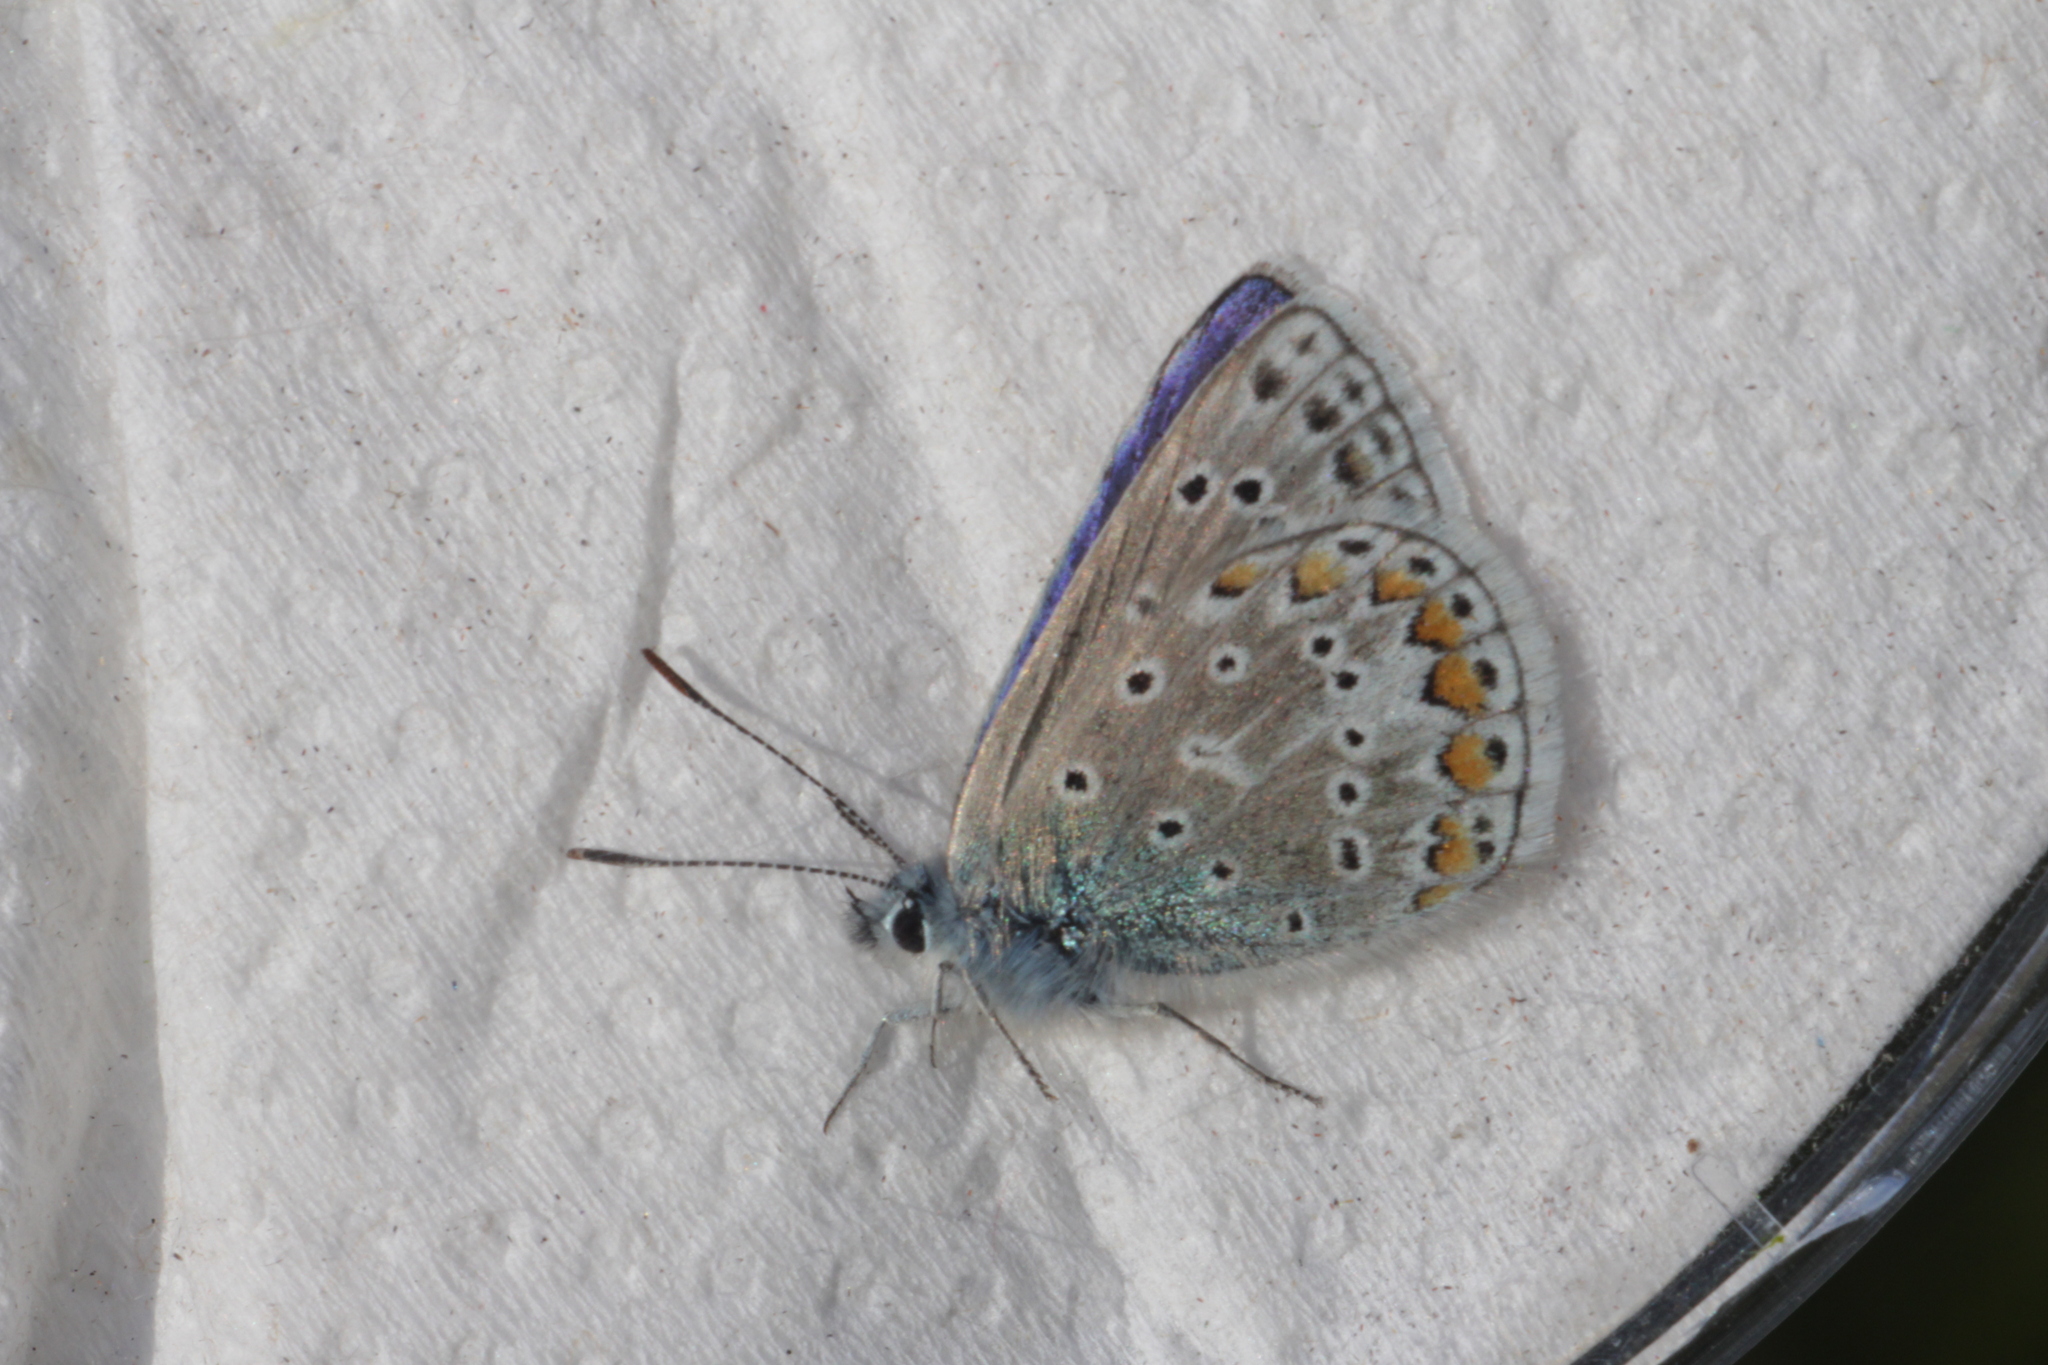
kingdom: Animalia
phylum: Arthropoda
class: Insecta
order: Lepidoptera
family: Lycaenidae
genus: Polyommatus
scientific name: Polyommatus icarus
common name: Common blue
